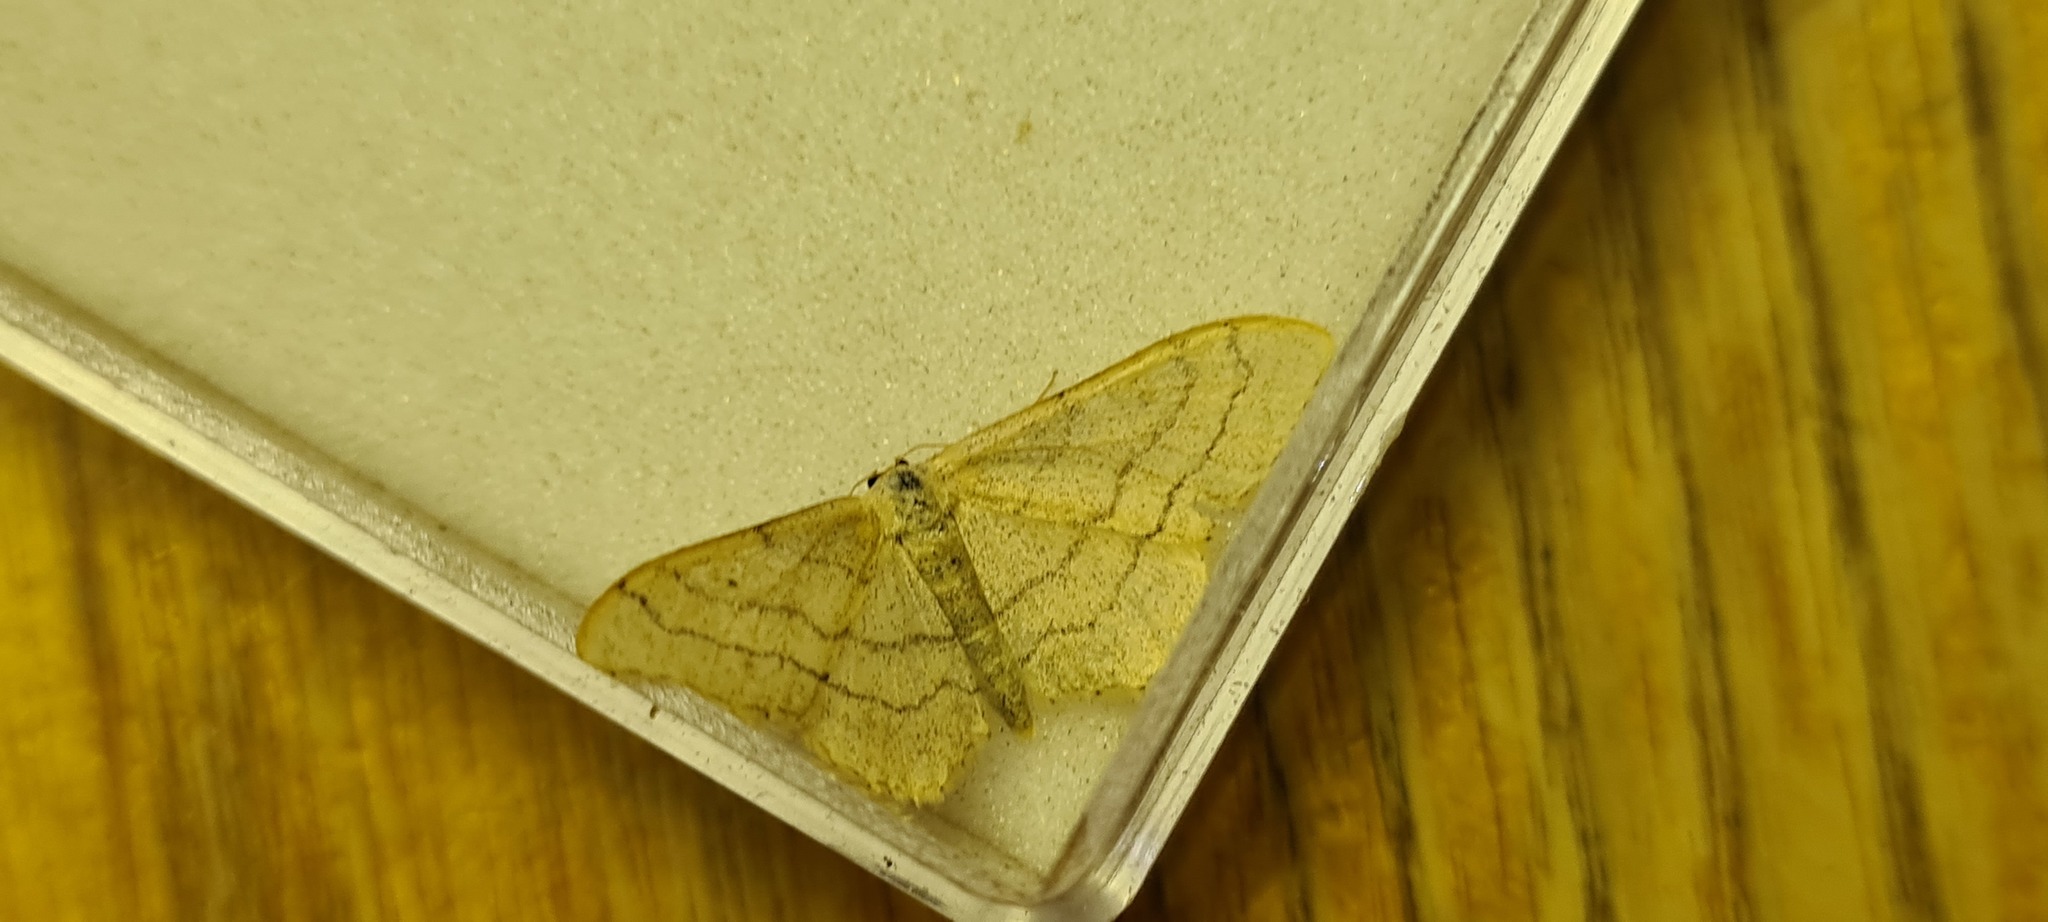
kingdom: Animalia
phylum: Arthropoda
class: Insecta
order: Lepidoptera
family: Geometridae
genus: Idaea
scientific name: Idaea aversata
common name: Riband wave
